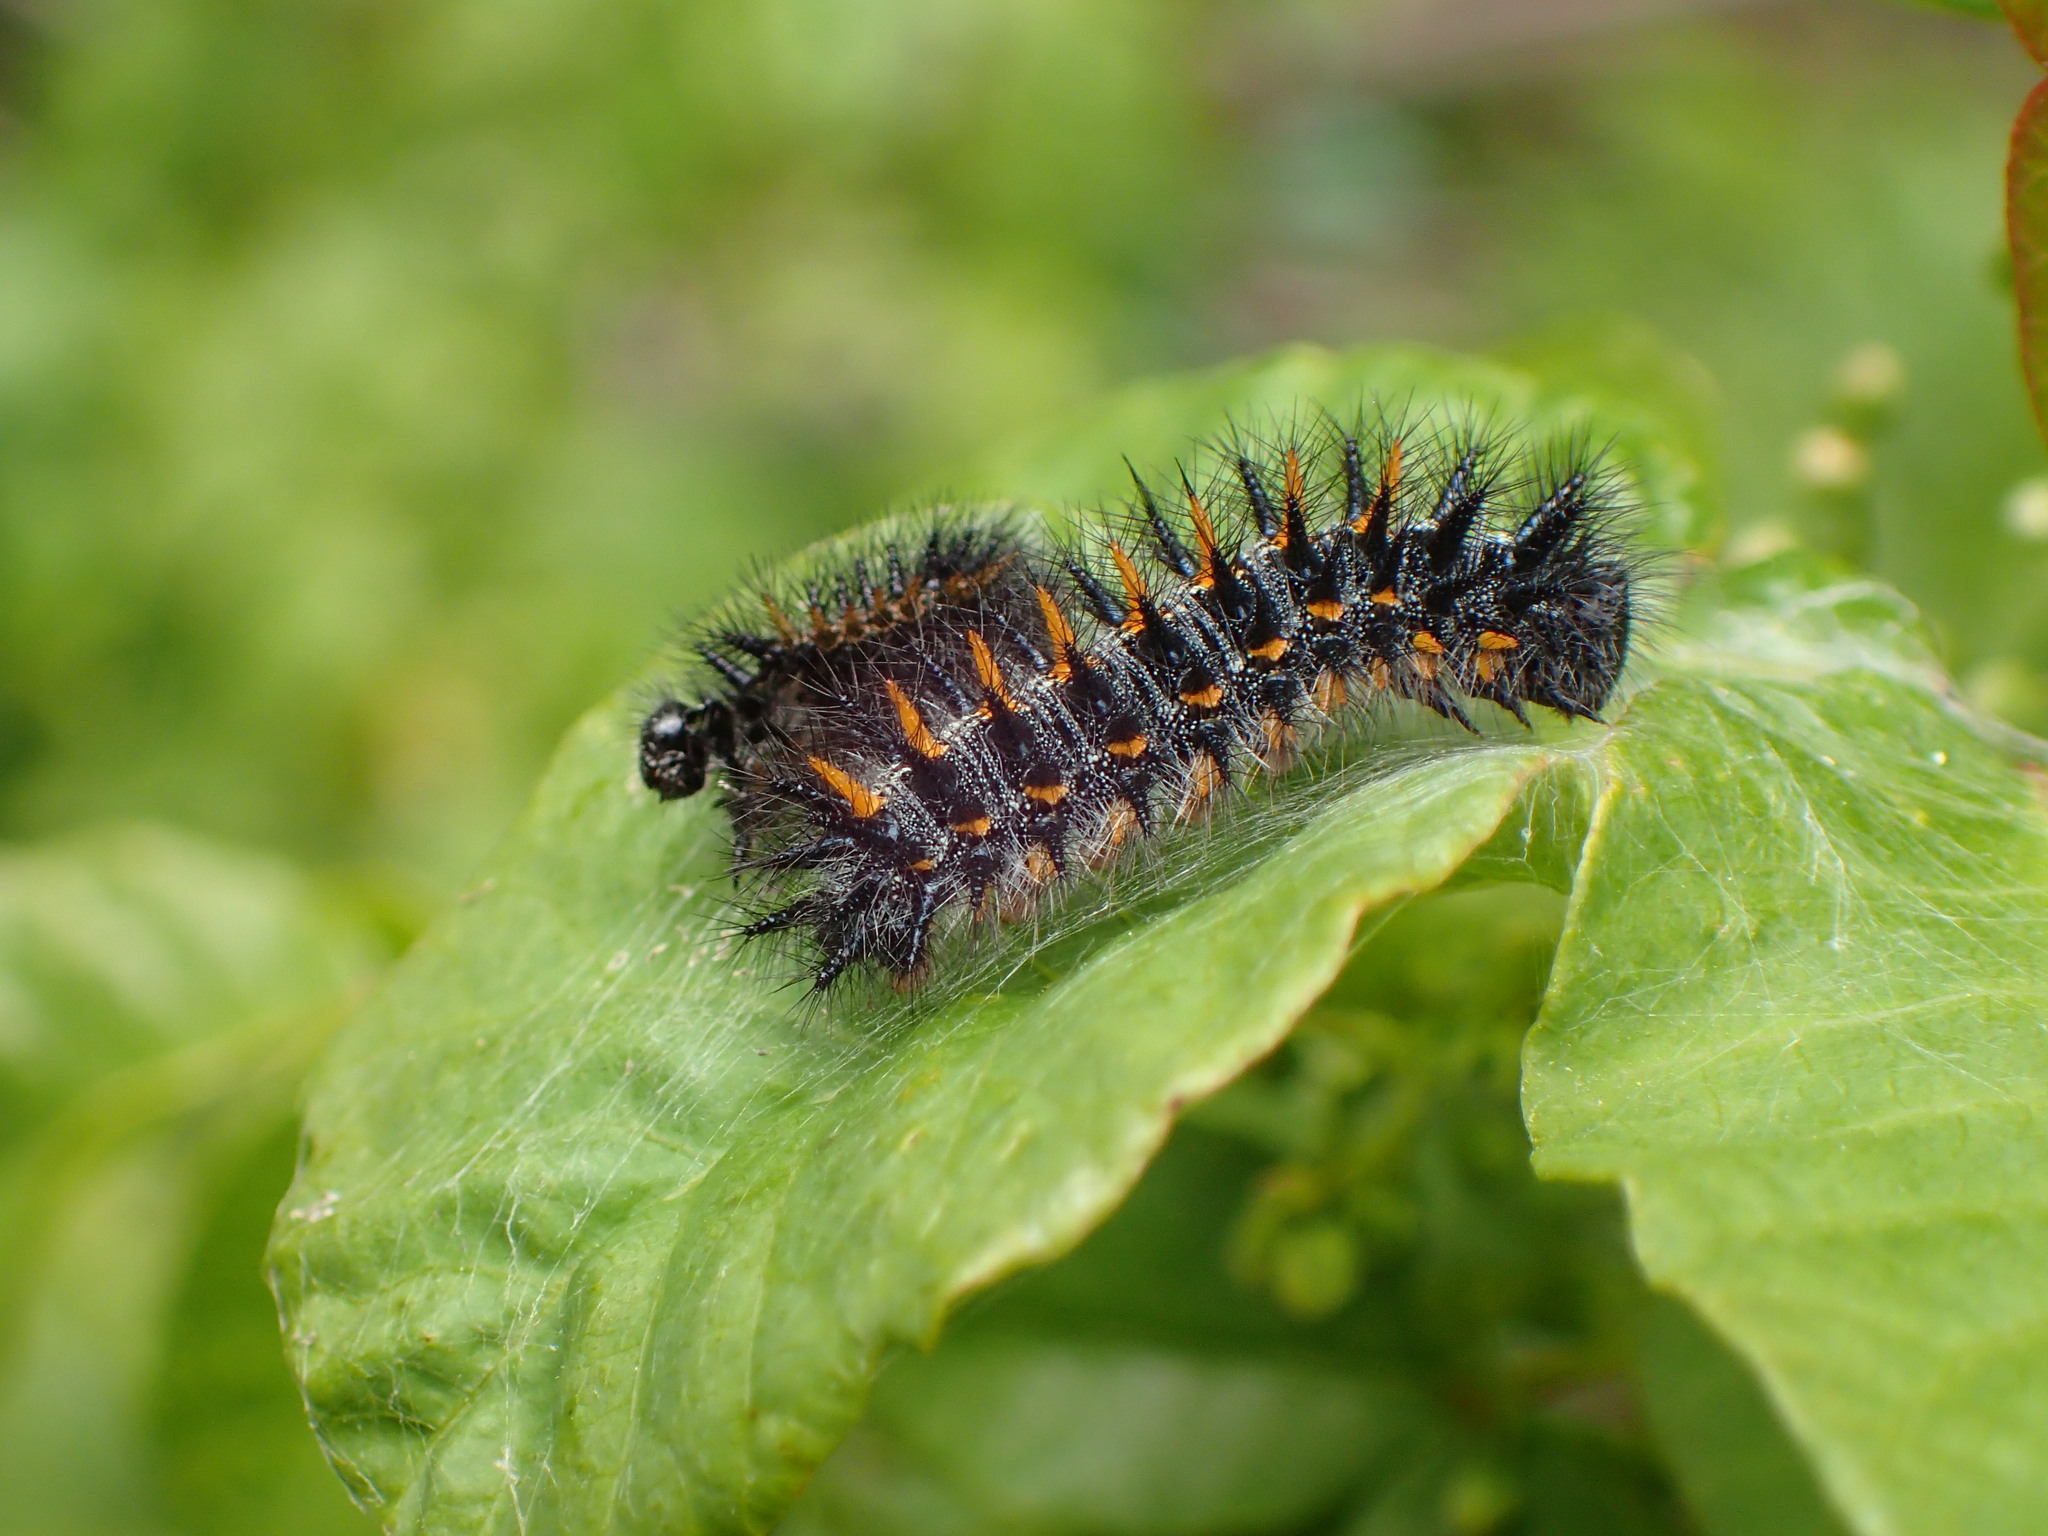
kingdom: Plantae
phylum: Tracheophyta
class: Magnoliopsida
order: Sapindales
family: Anacardiaceae
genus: Toxicodendron
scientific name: Toxicodendron diversilobum
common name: Pacific poison-oak
